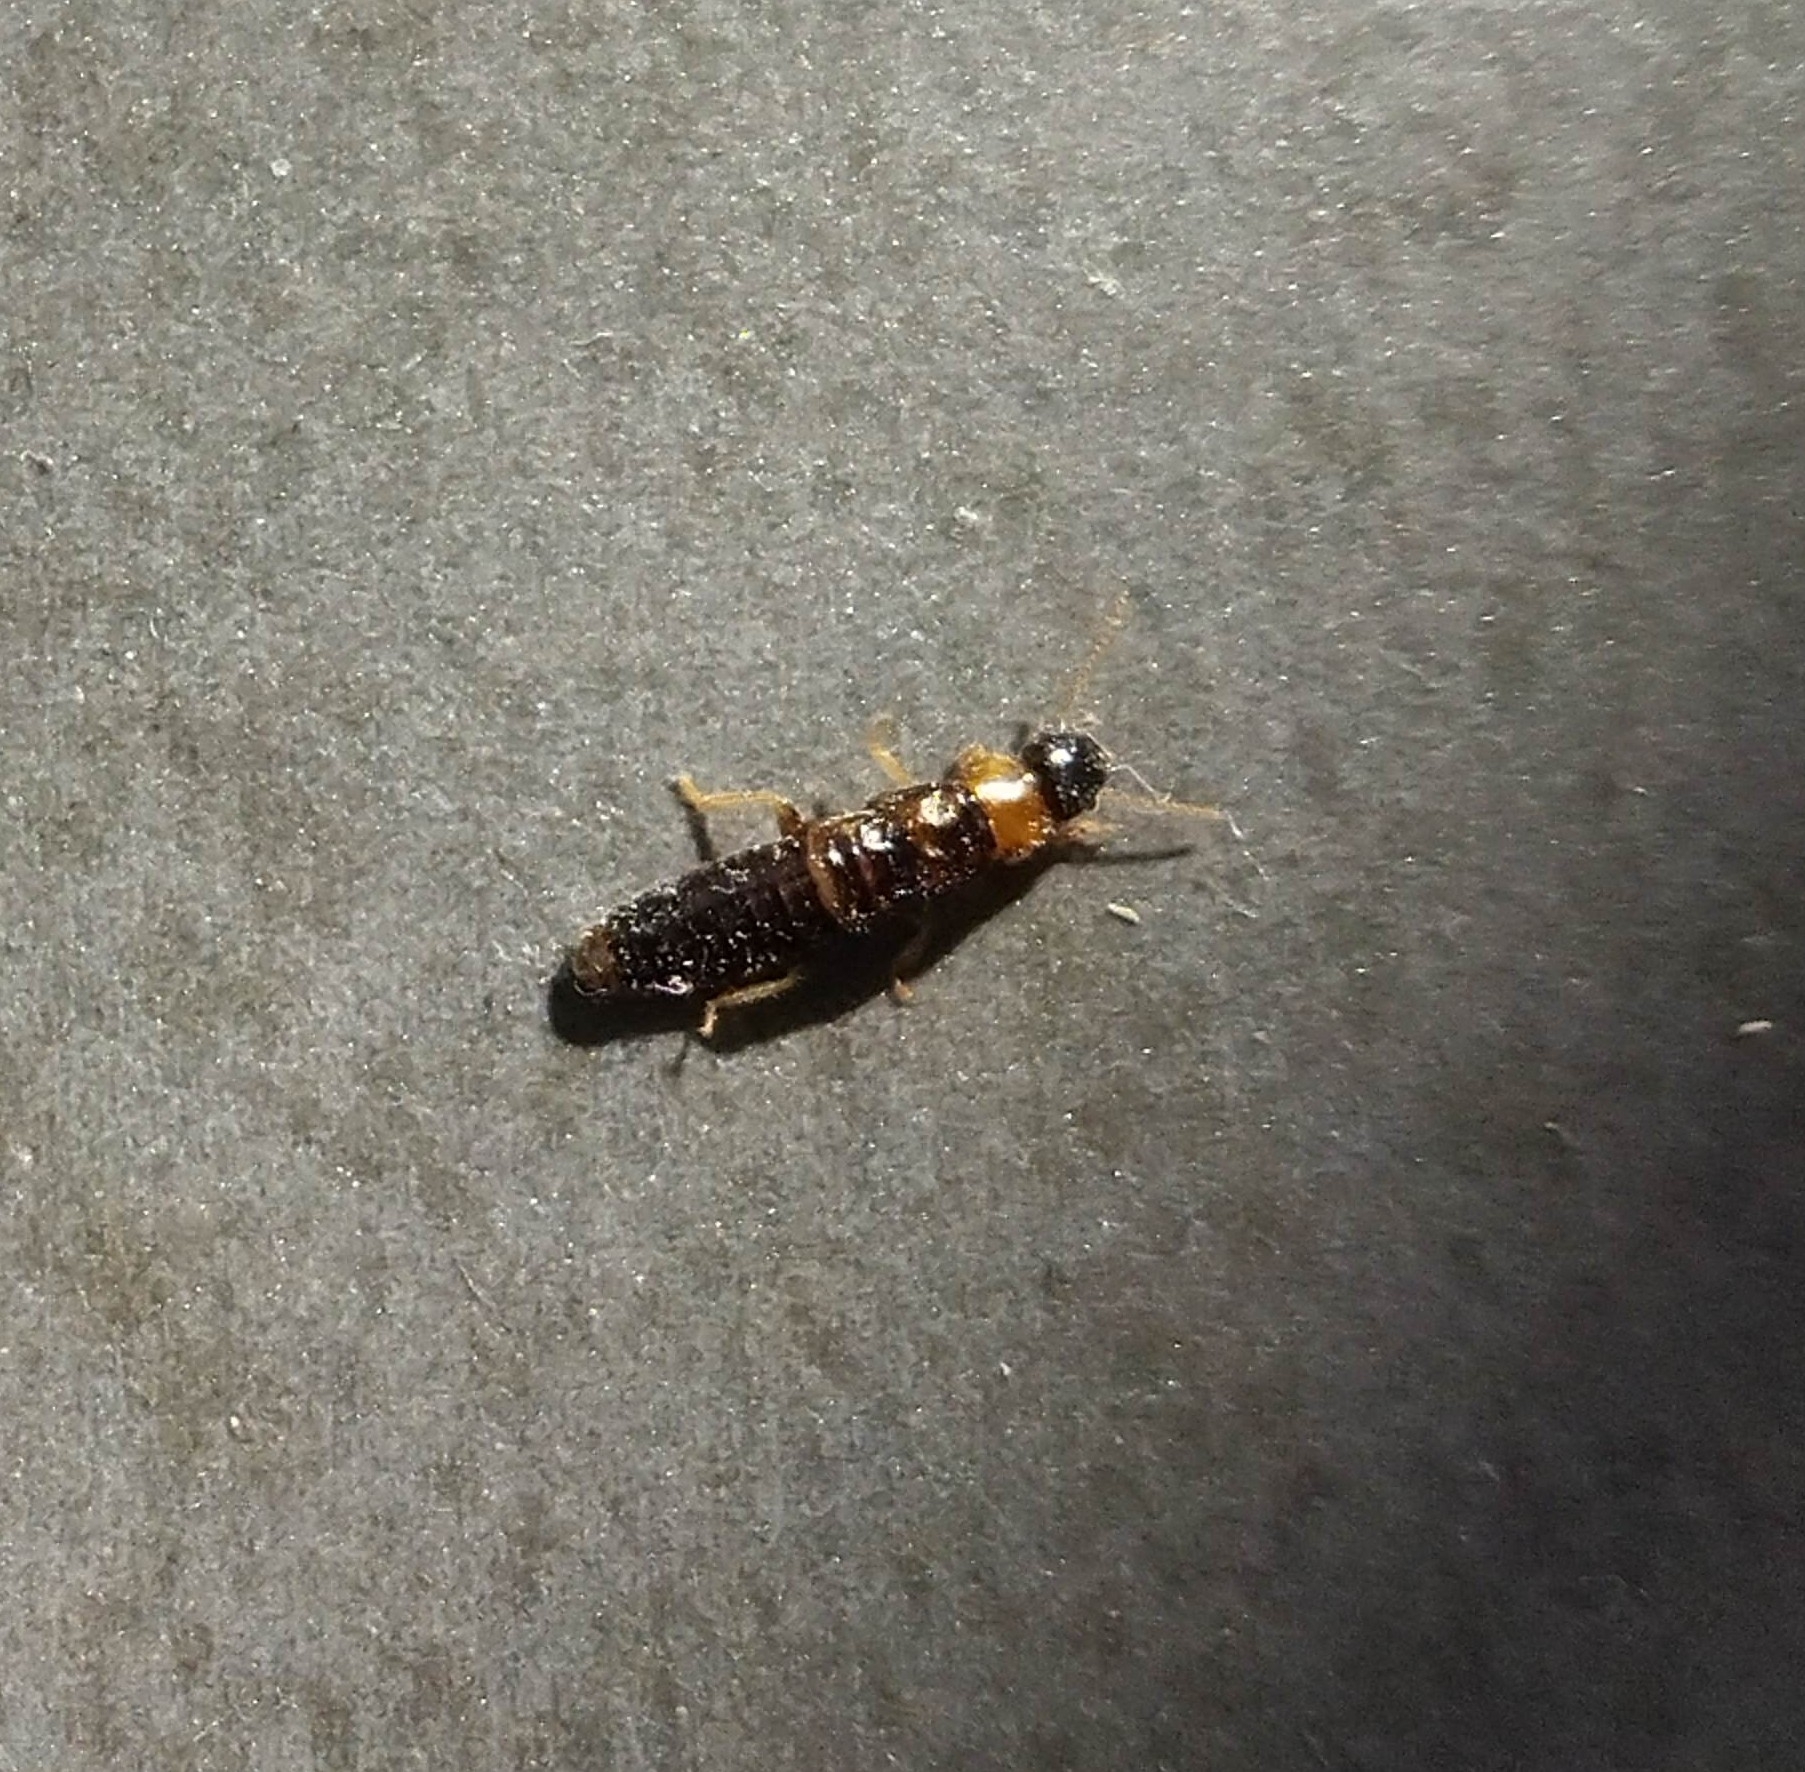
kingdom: Animalia
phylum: Arthropoda
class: Insecta
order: Blattodea
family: Kalotermitidae
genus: Kalotermes
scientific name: Kalotermes flavicollis
